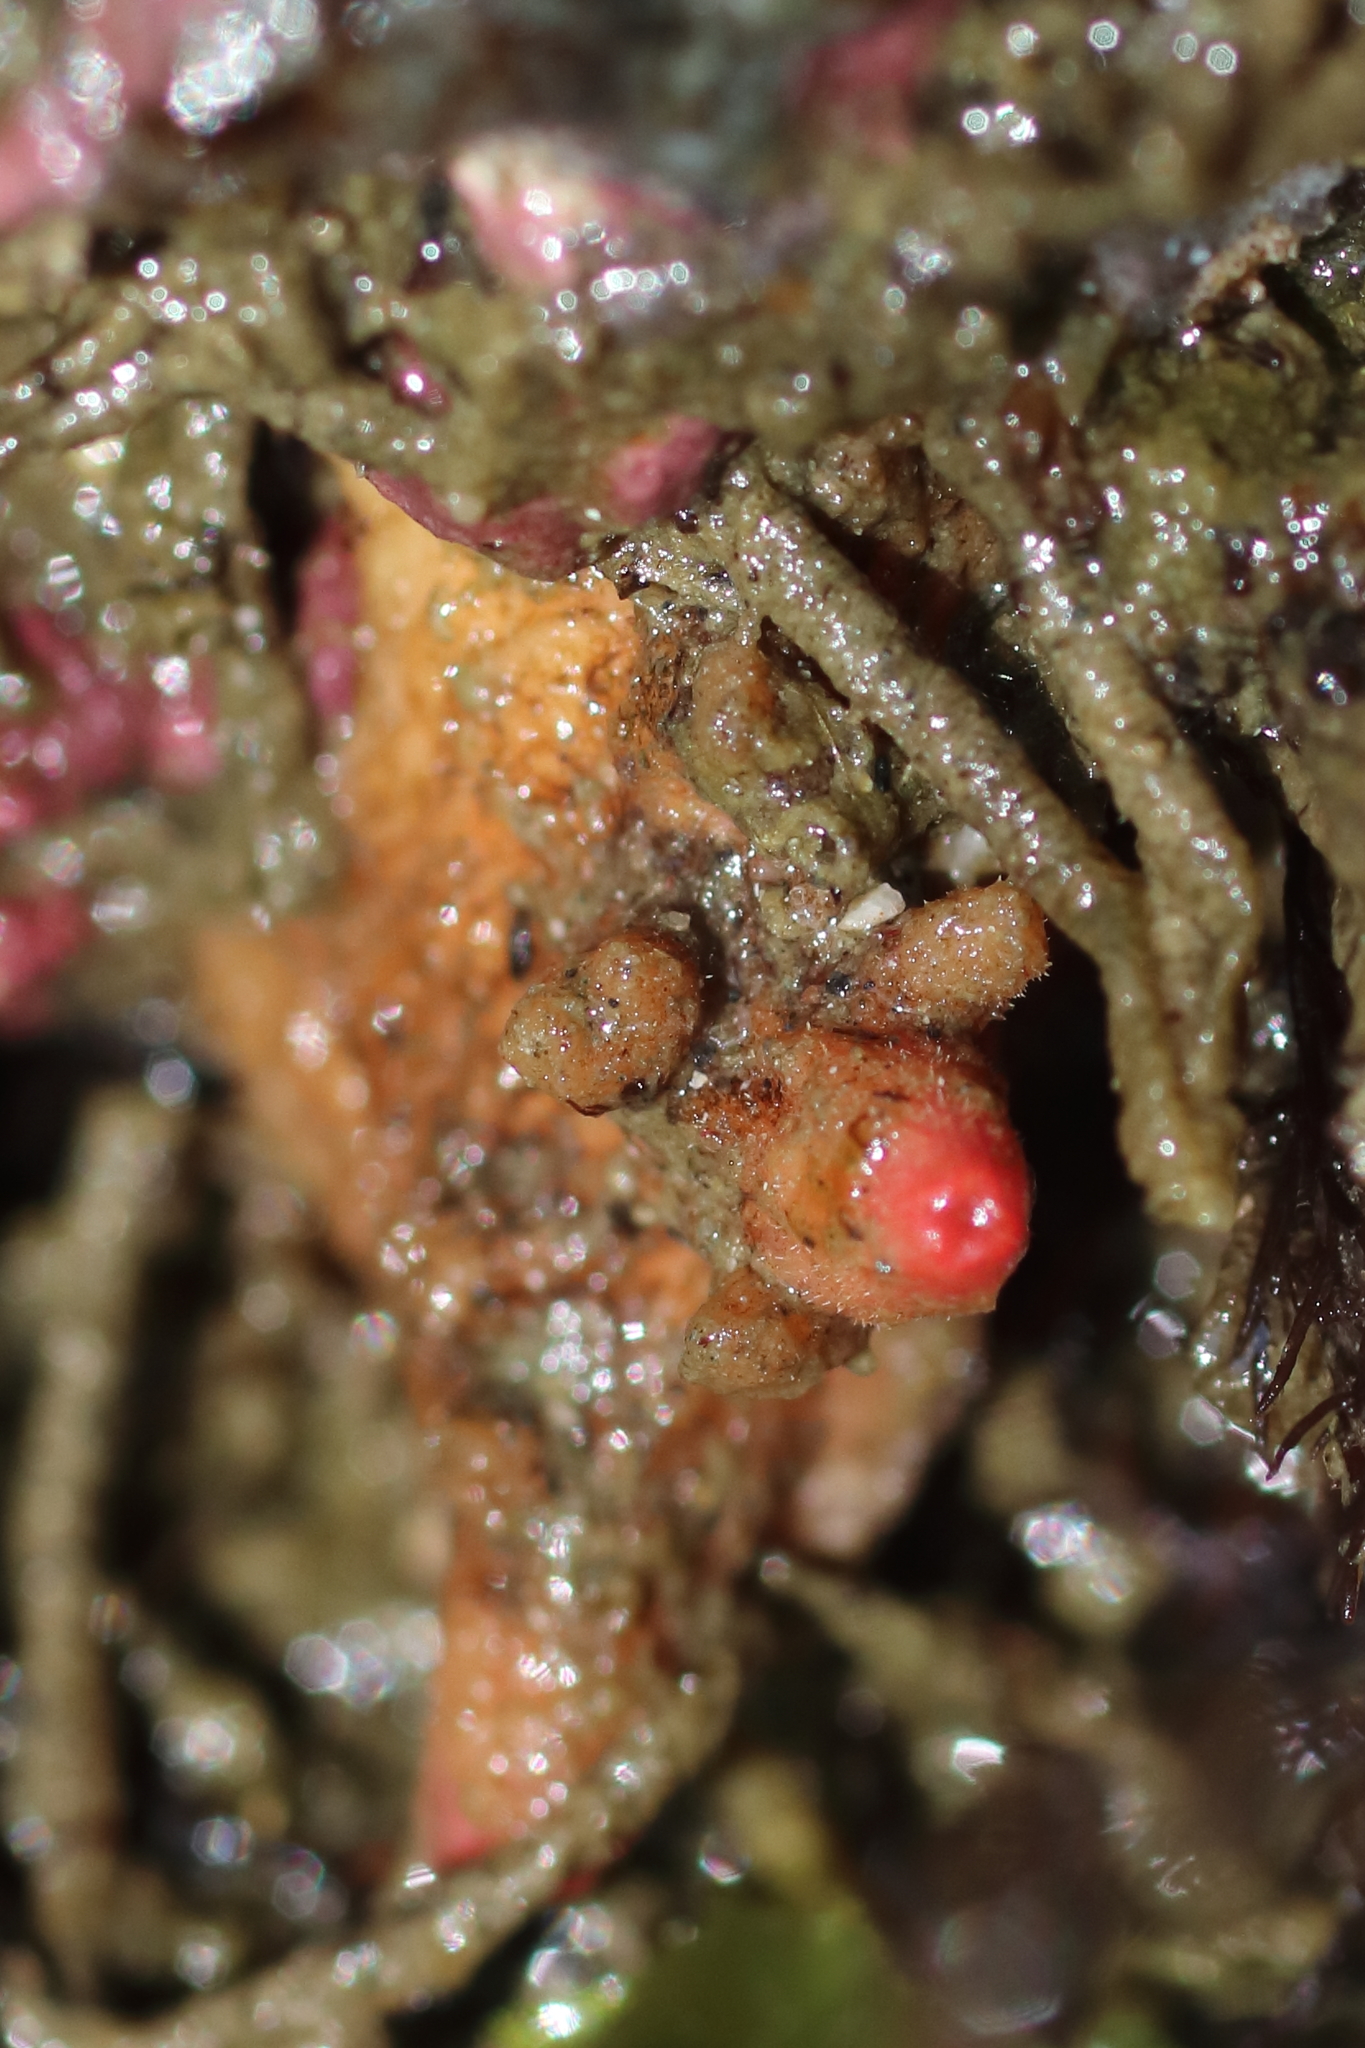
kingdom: Animalia
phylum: Chordata
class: Ascidiacea
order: Stolidobranchia
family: Pyuridae
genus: Pyura
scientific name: Pyura haustor
